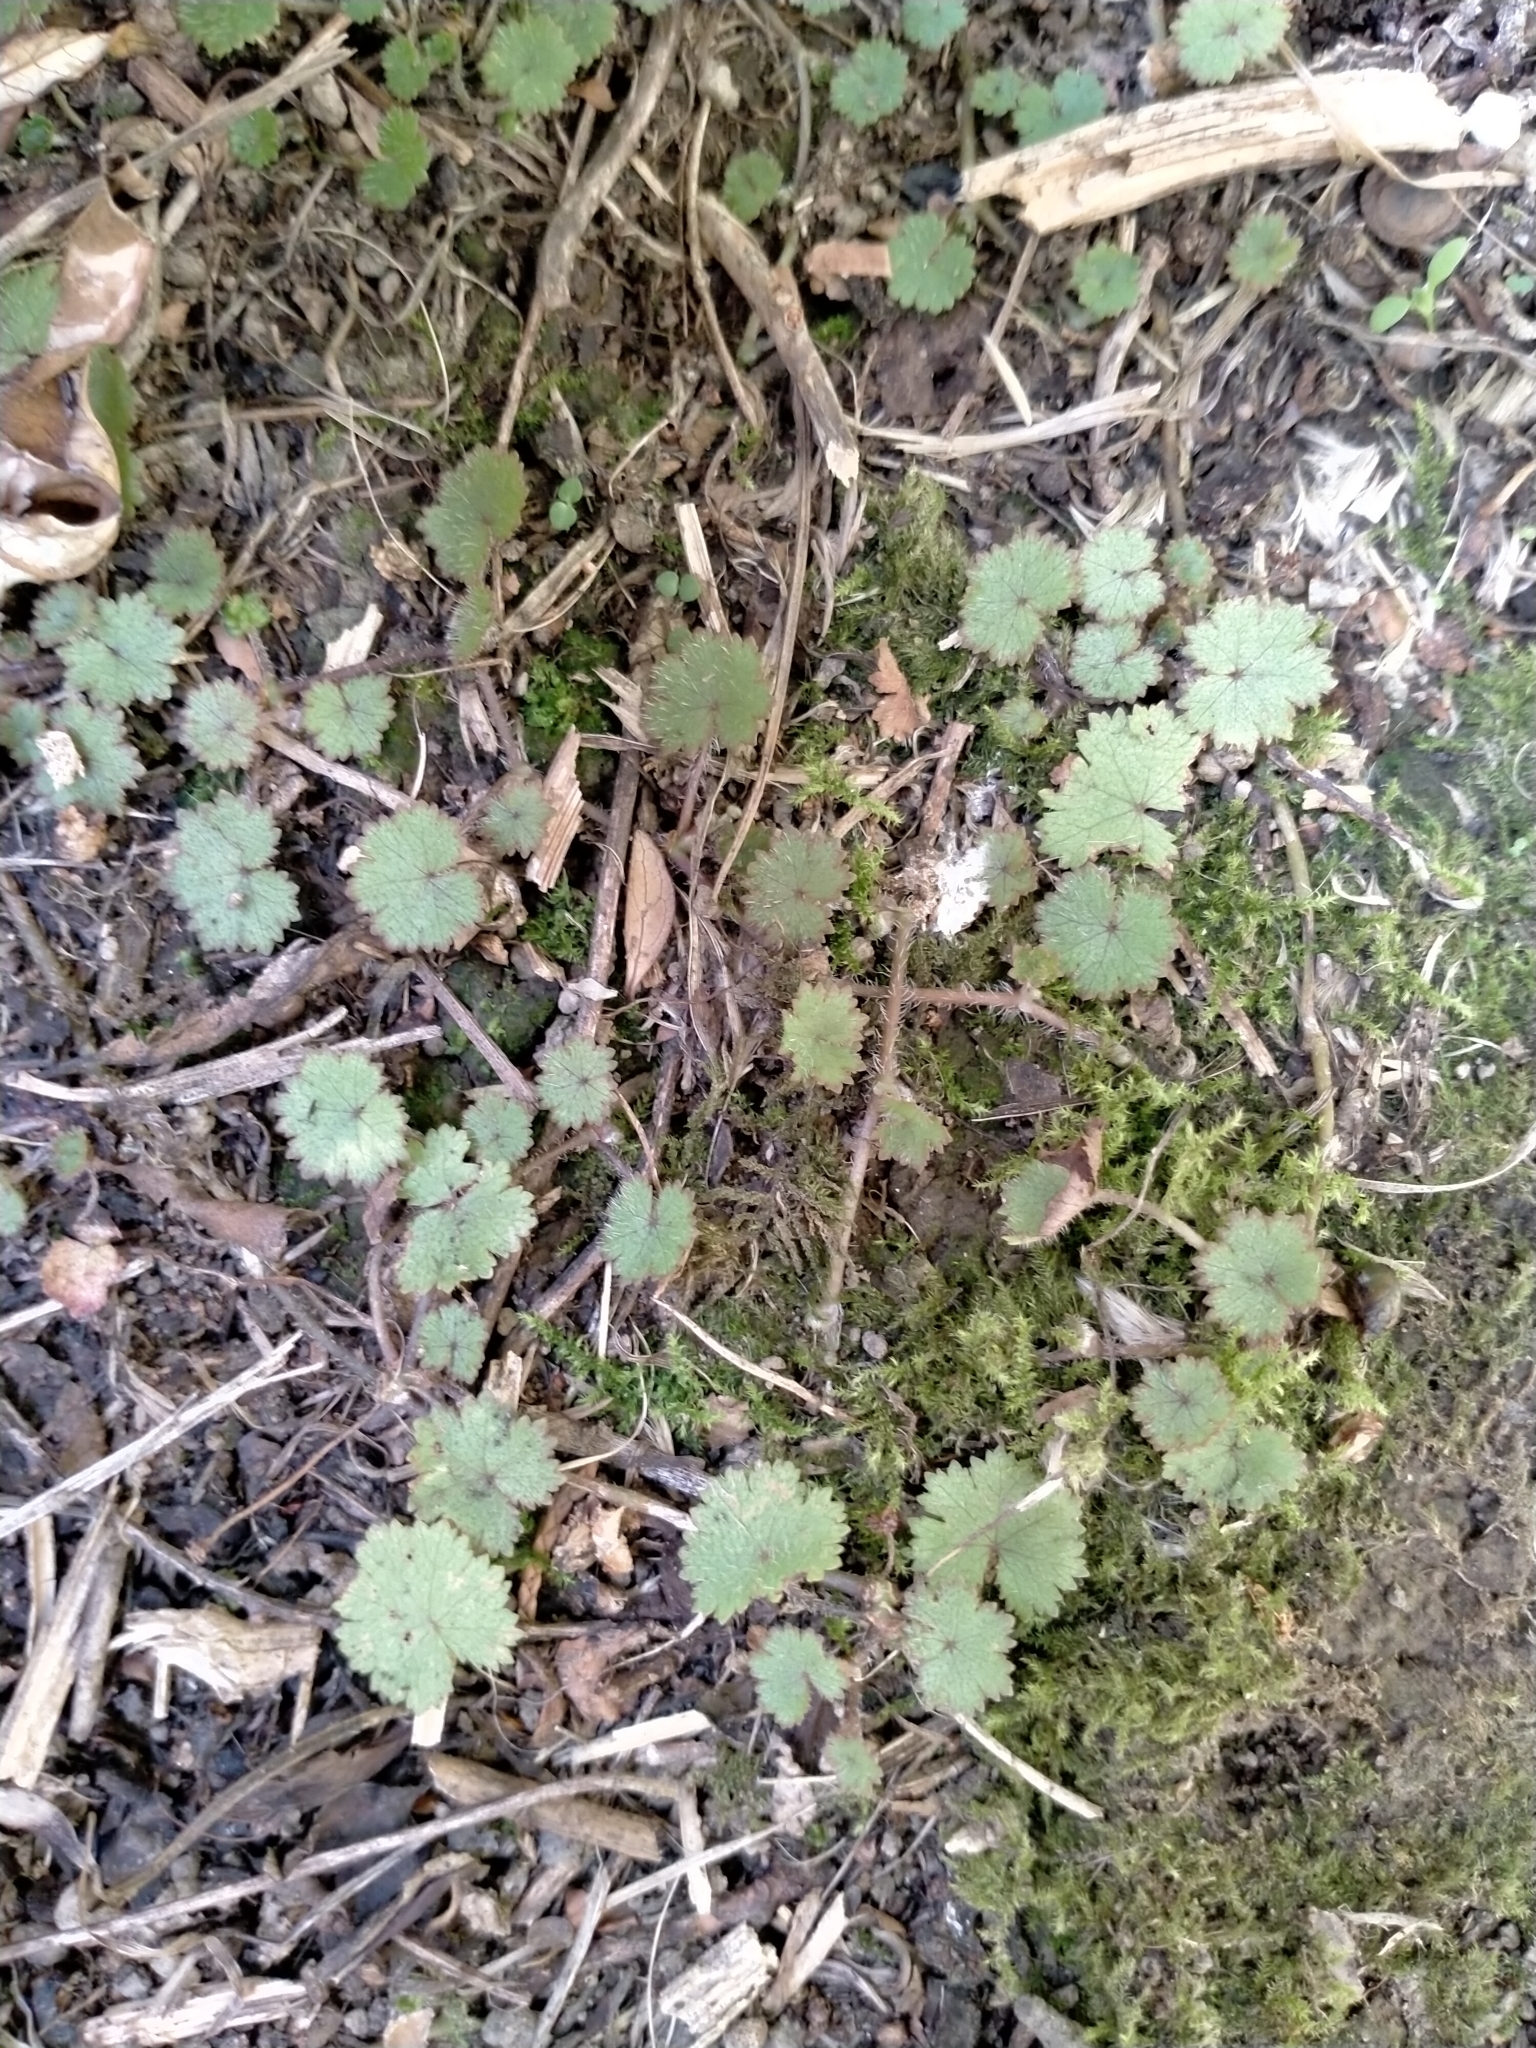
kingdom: Plantae
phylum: Tracheophyta
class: Magnoliopsida
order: Apiales
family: Araliaceae
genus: Hydrocotyle
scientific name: Hydrocotyle moschata
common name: Hairy pennywort
